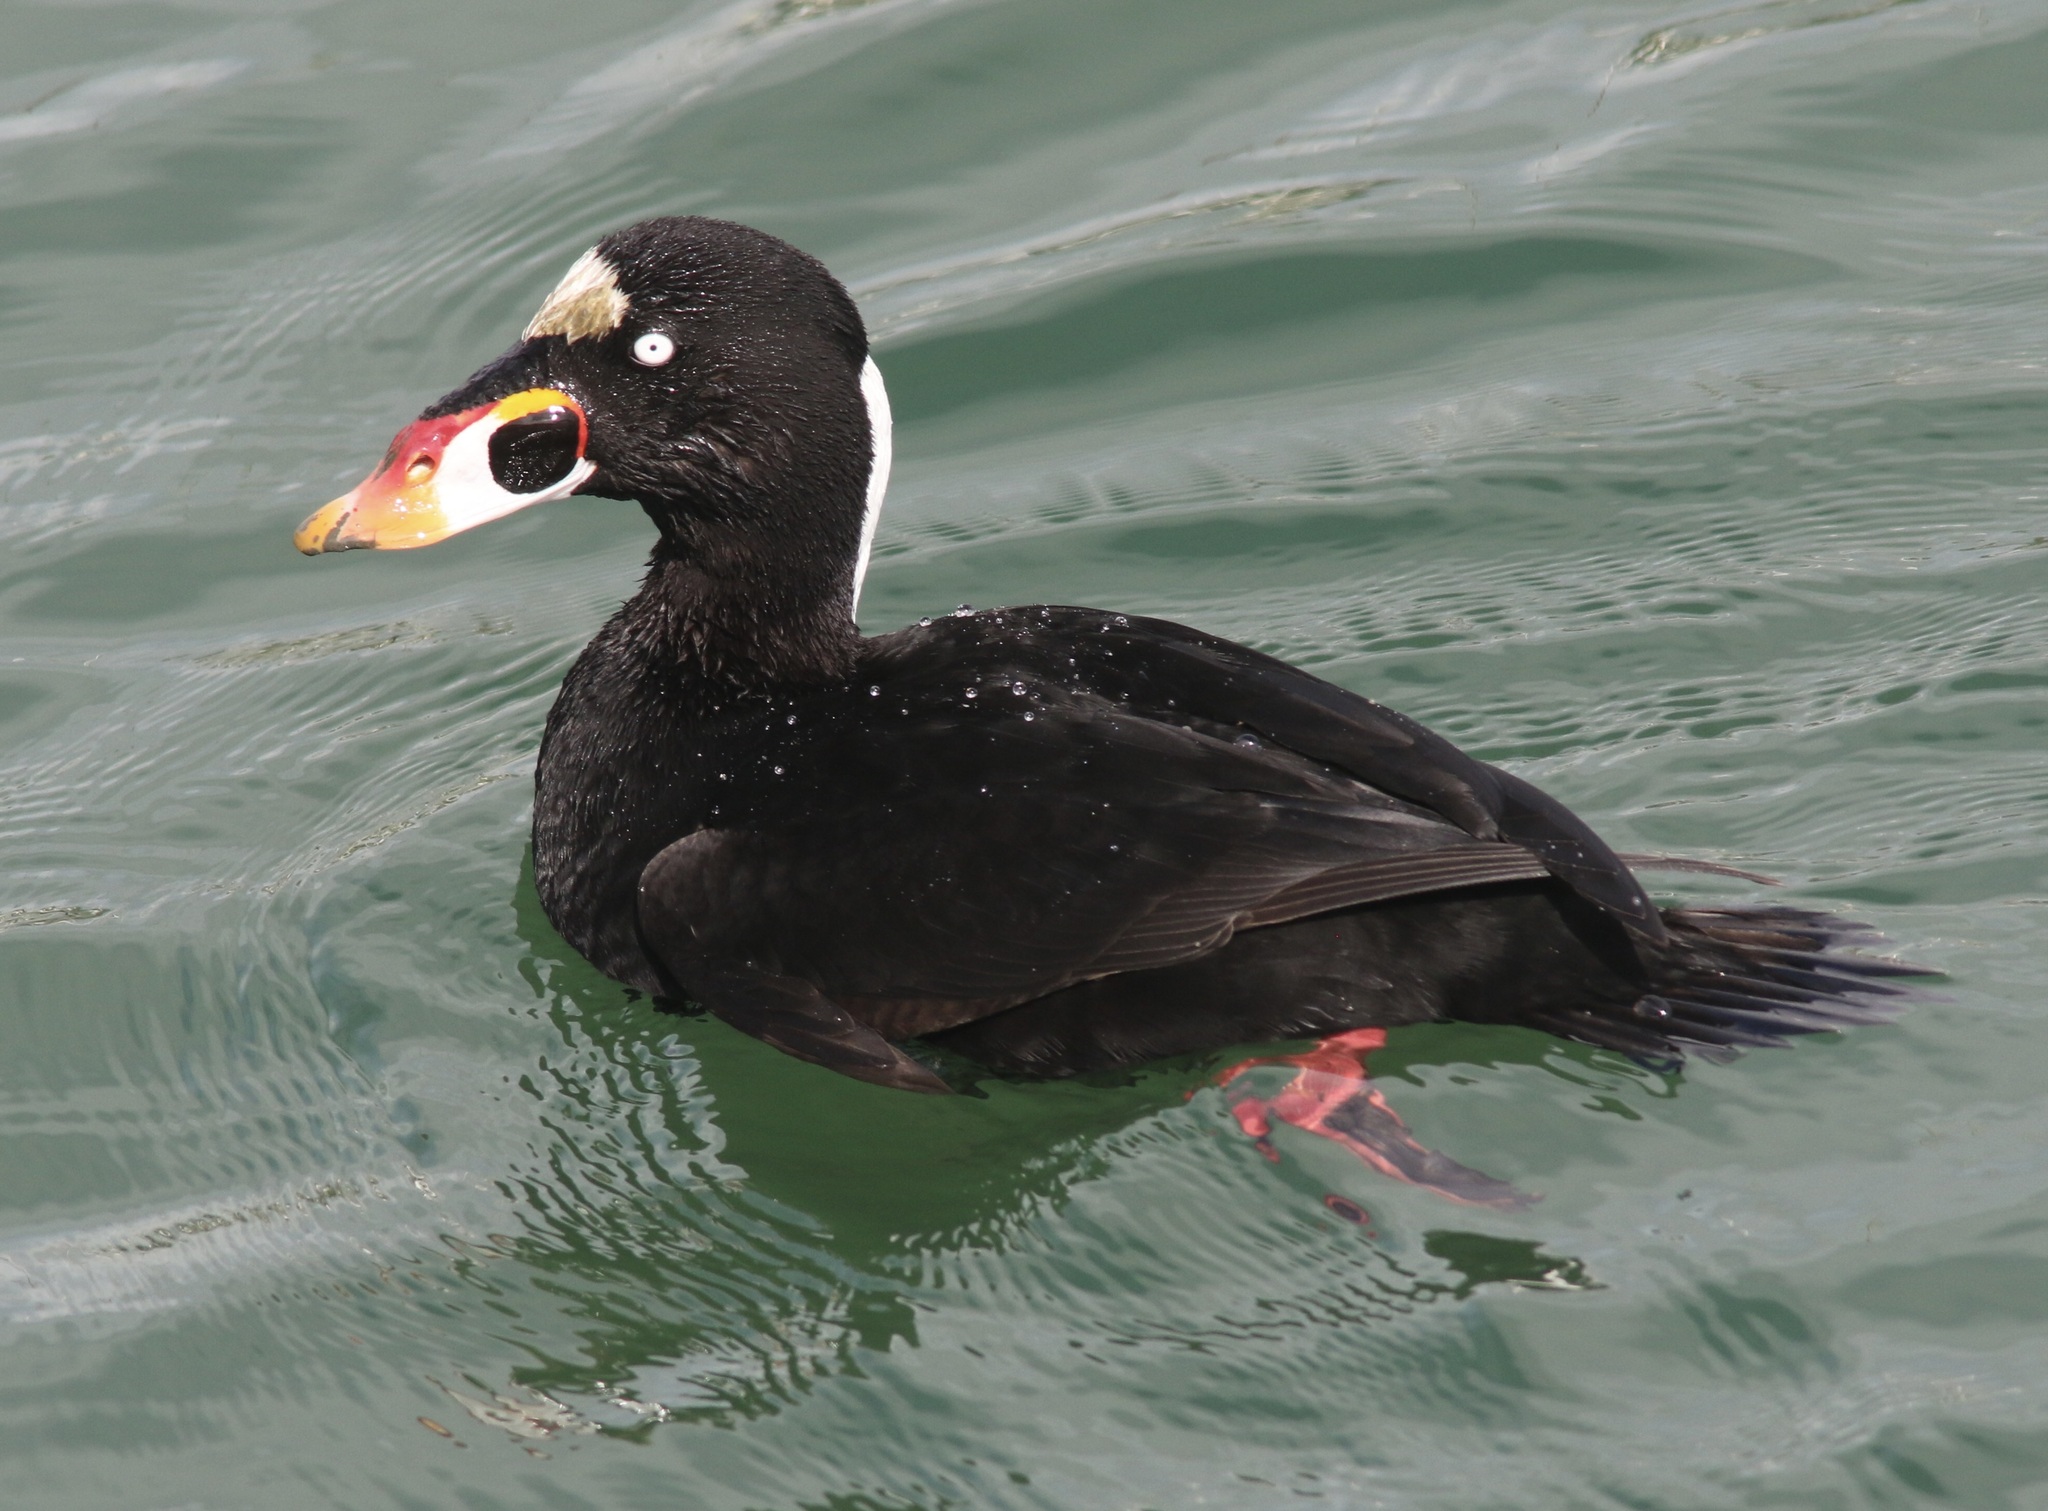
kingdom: Animalia
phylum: Chordata
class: Aves
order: Anseriformes
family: Anatidae
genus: Melanitta
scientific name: Melanitta perspicillata
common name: Surf scoter
